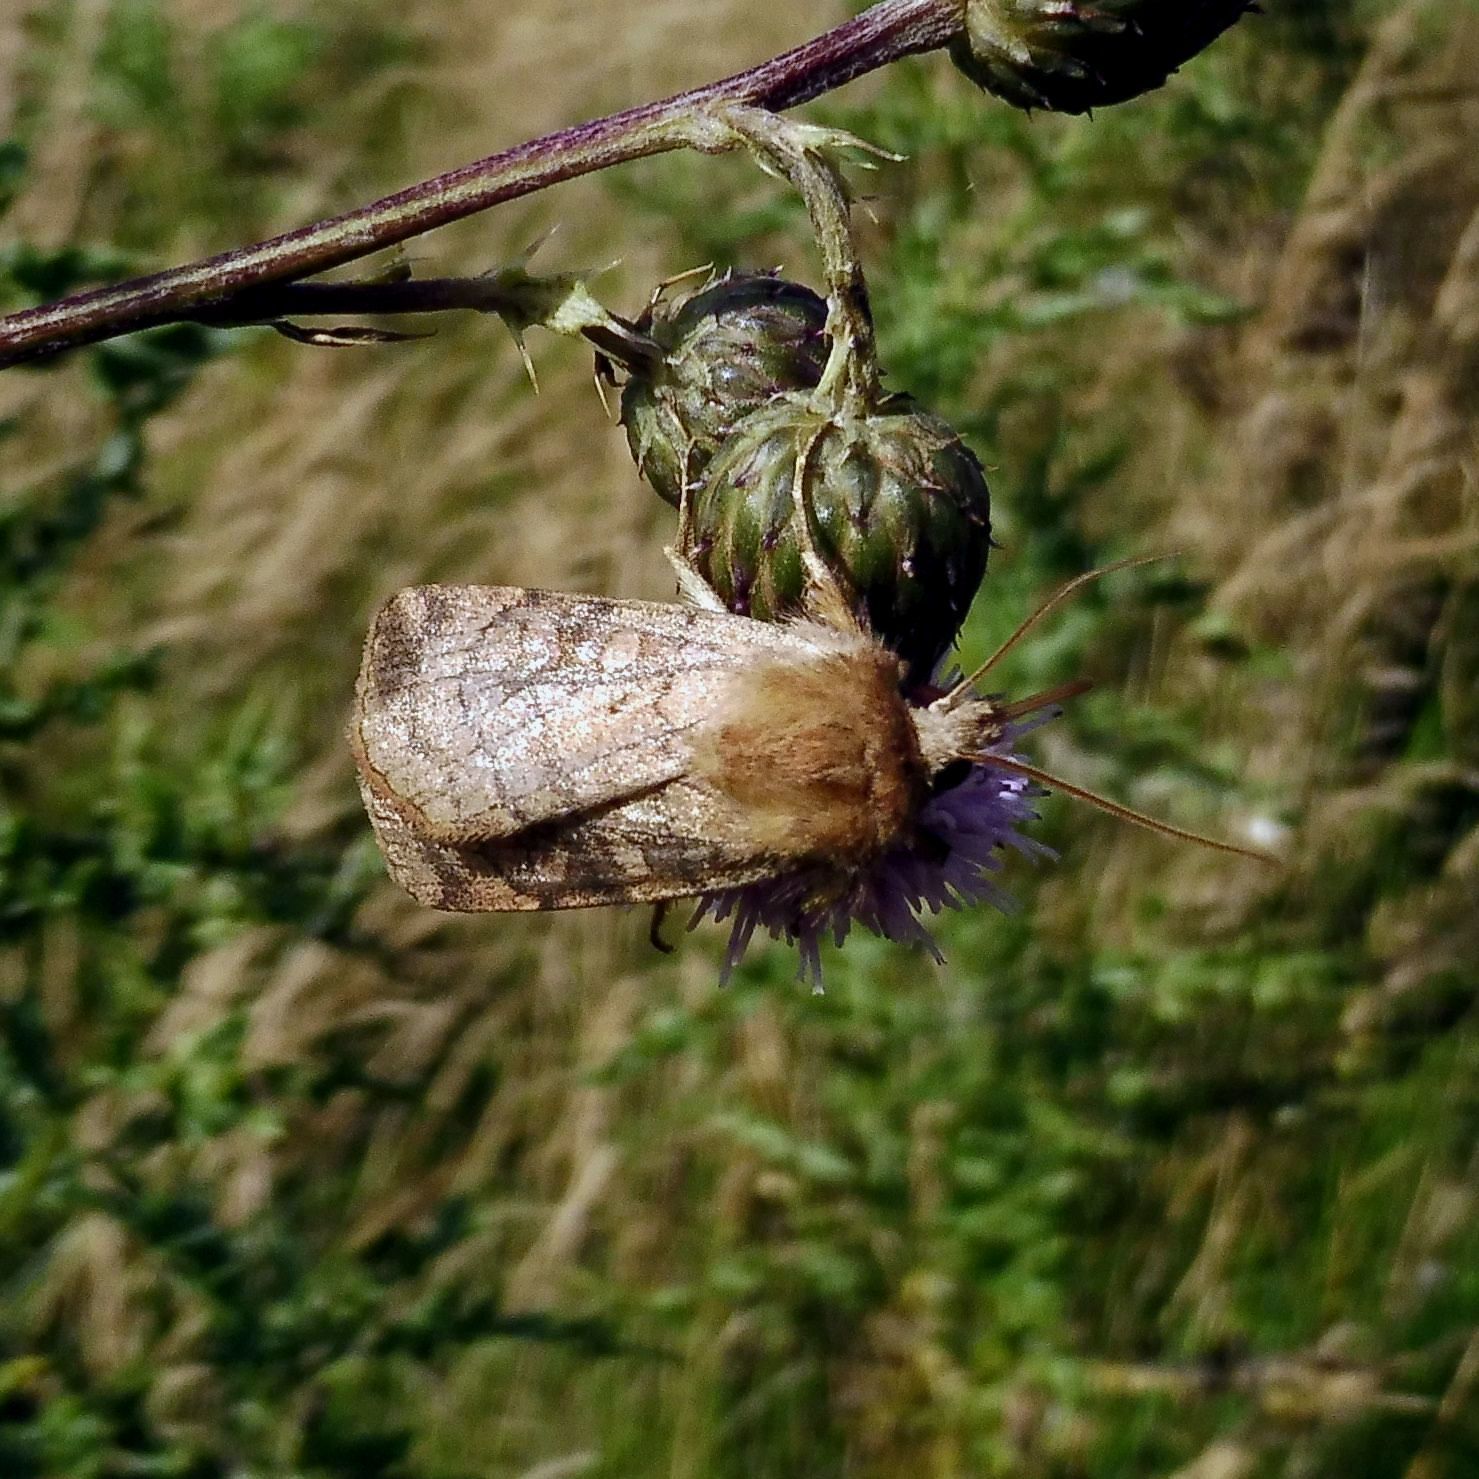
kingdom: Animalia
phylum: Arthropoda
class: Insecta
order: Lepidoptera
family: Noctuidae
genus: Xestia
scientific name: Xestia sexstrigata
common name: Six-striped rustic
